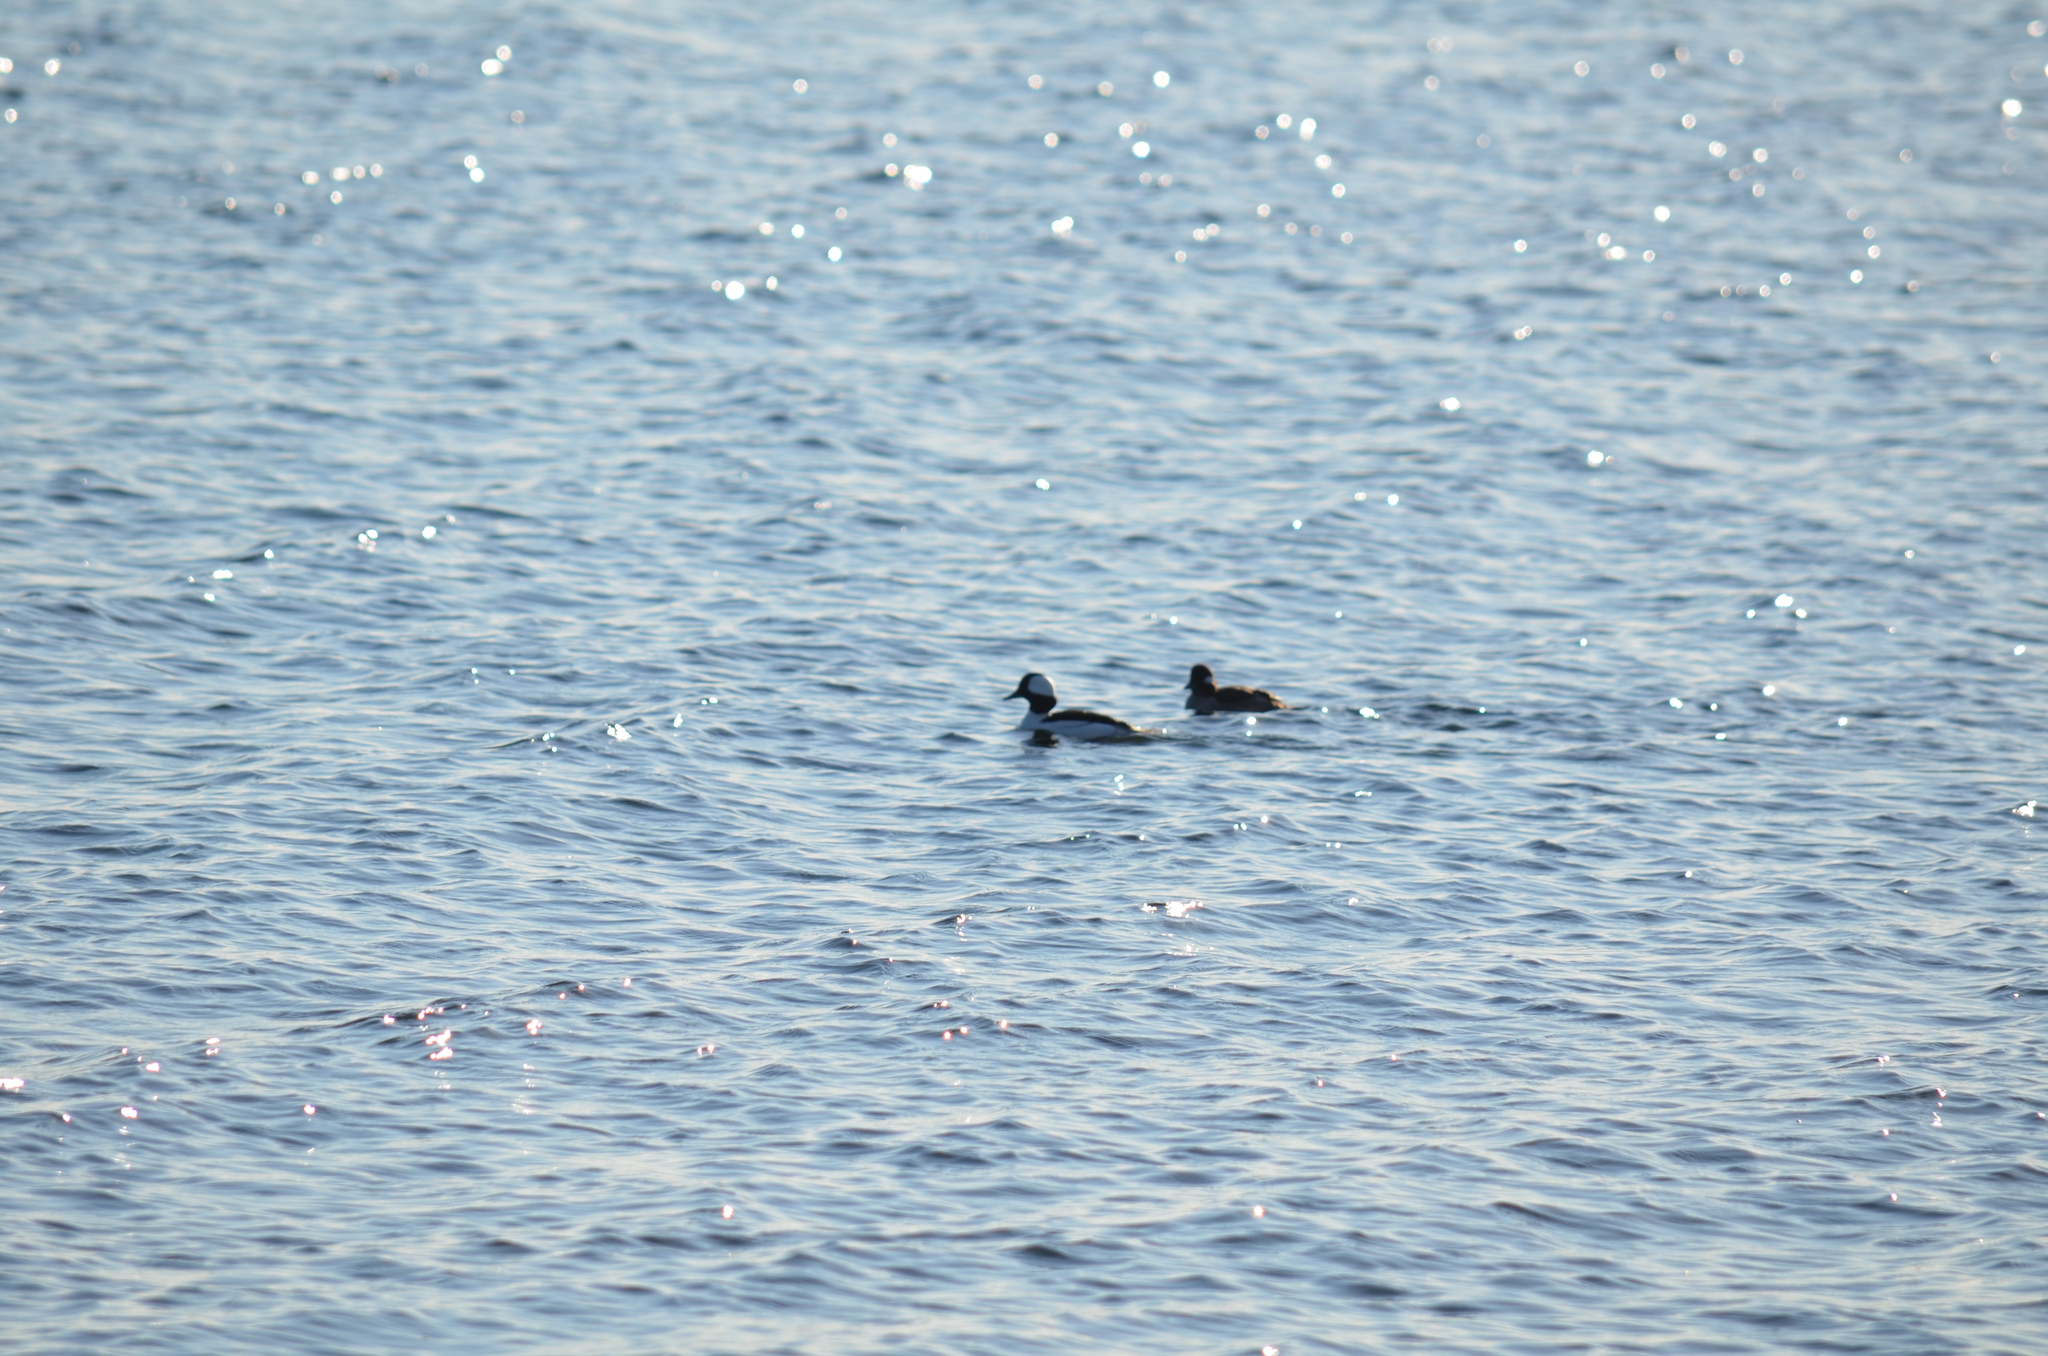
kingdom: Animalia
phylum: Chordata
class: Aves
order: Anseriformes
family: Anatidae
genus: Bucephala
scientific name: Bucephala albeola
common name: Bufflehead
